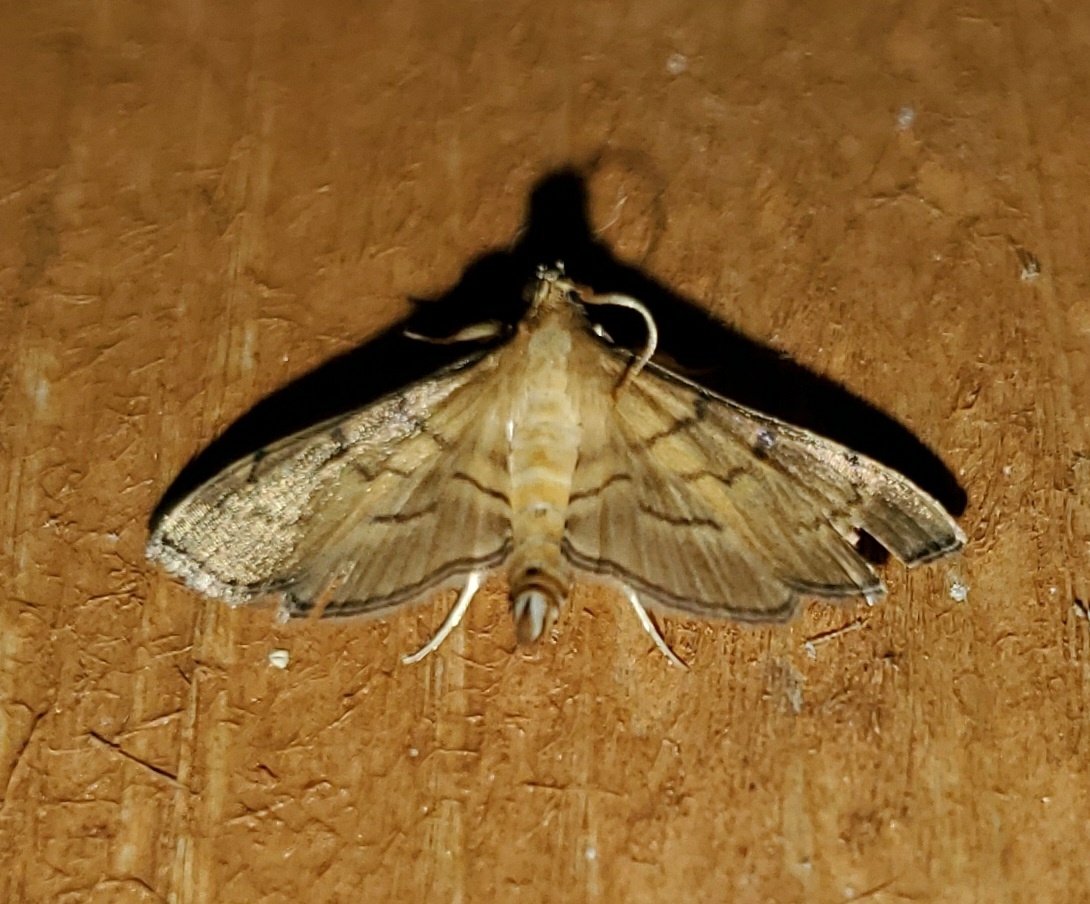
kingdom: Animalia
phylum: Arthropoda
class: Insecta
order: Lepidoptera
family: Crambidae
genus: Salbia
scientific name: Salbia
